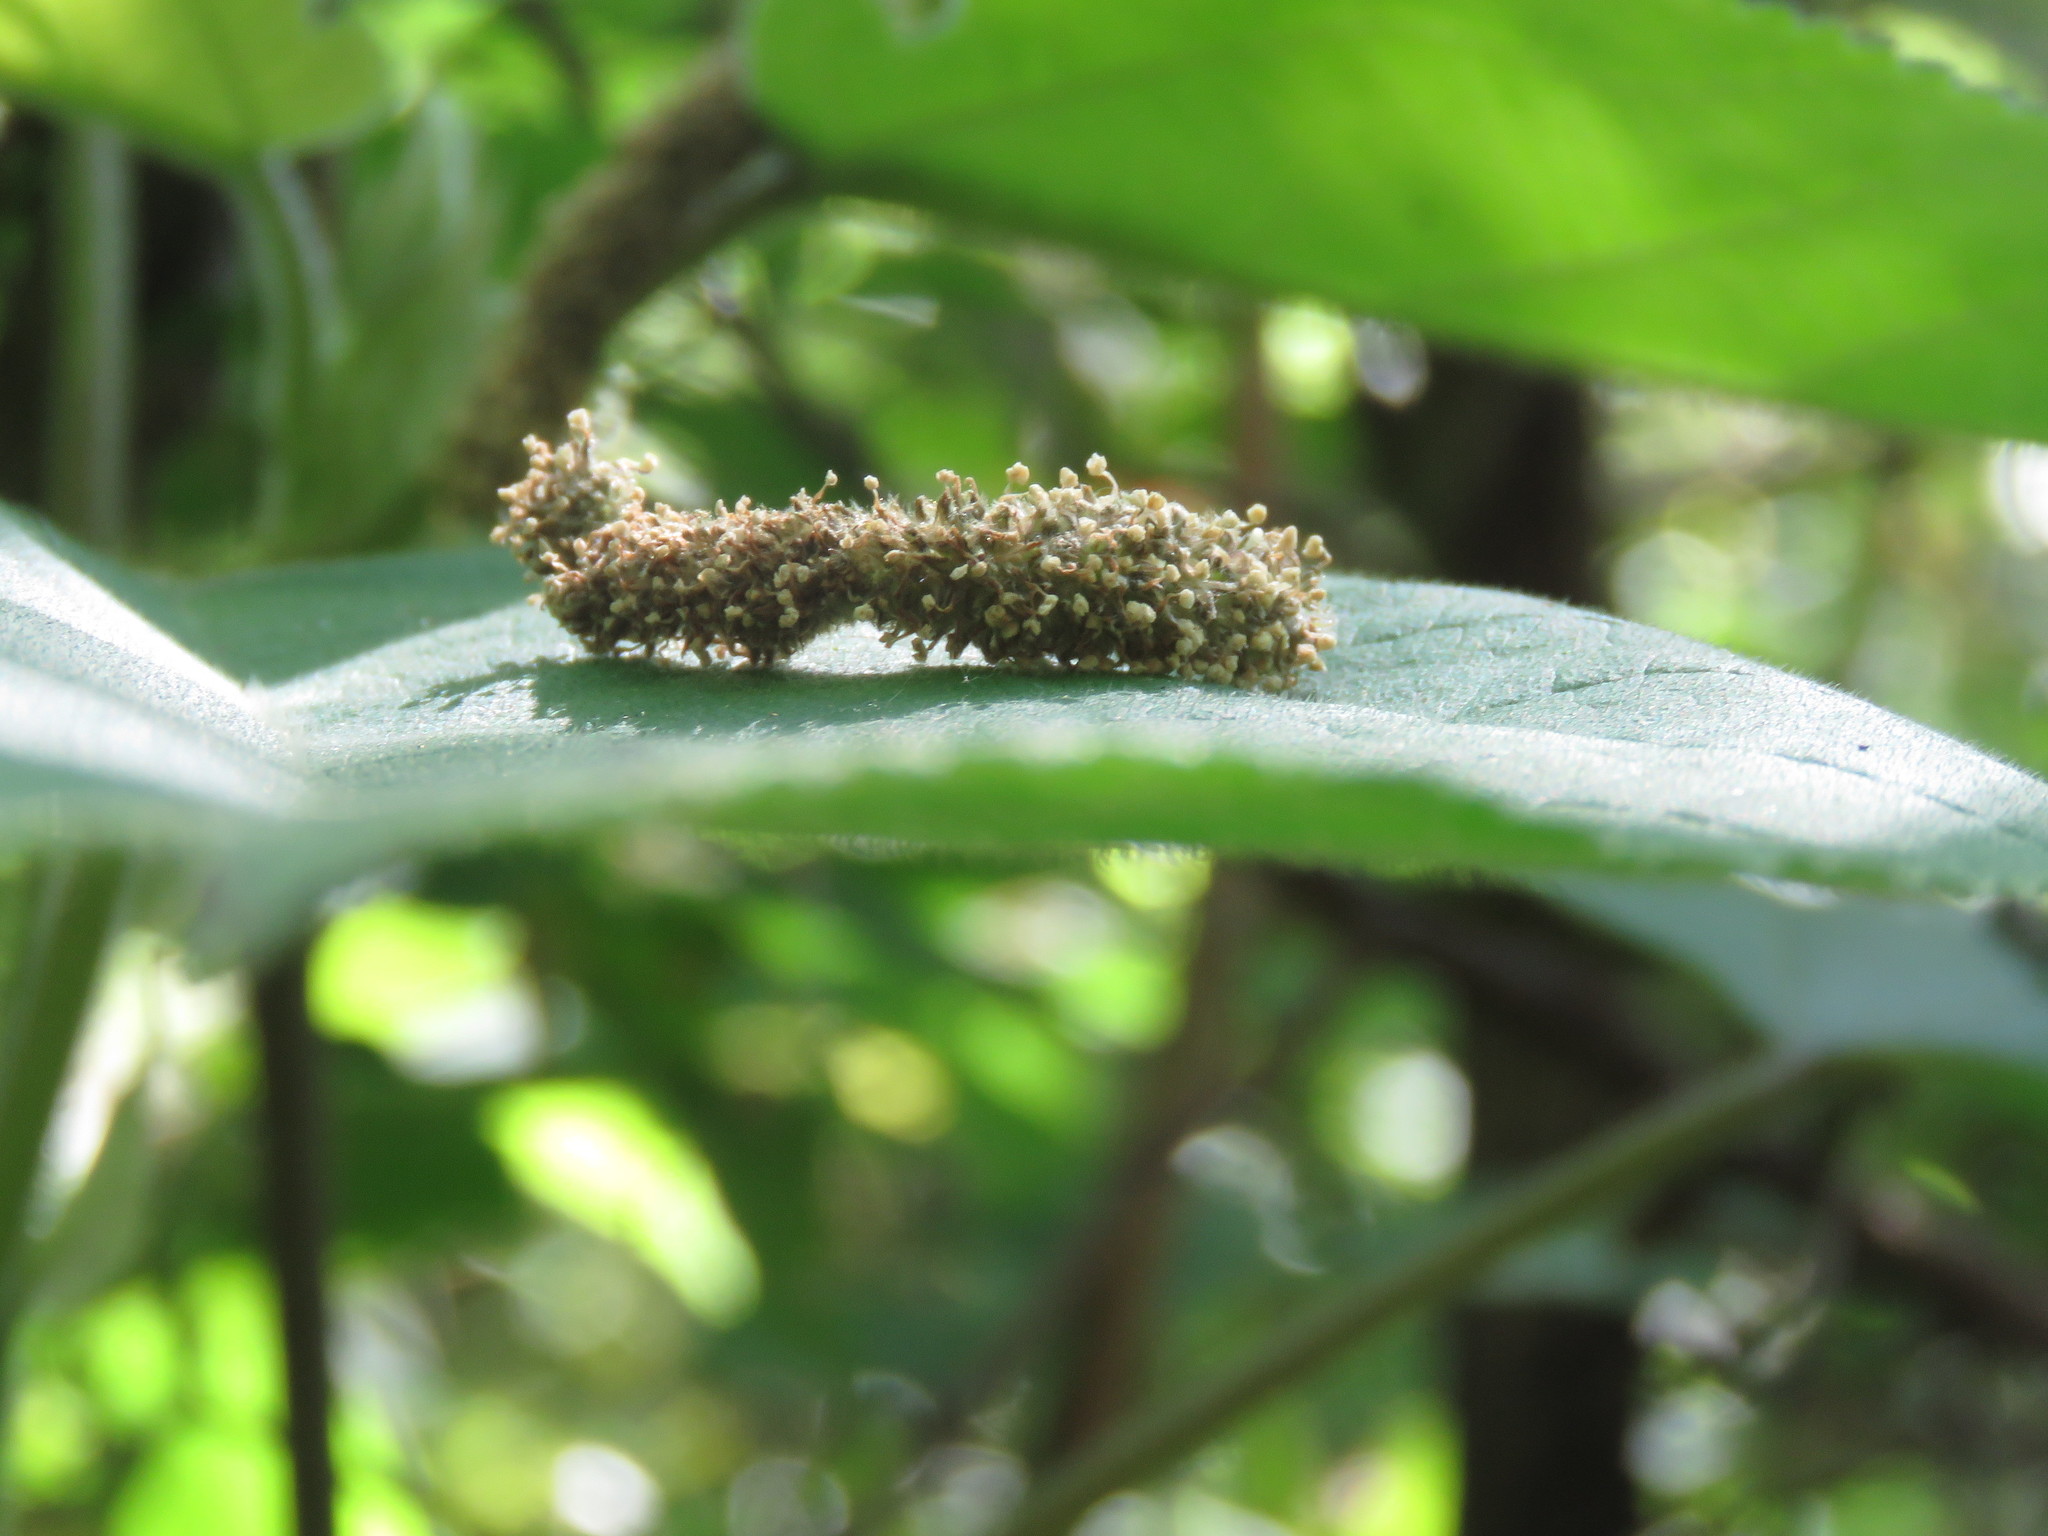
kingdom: Plantae
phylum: Tracheophyta
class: Magnoliopsida
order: Rosales
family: Moraceae
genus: Broussonetia
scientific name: Broussonetia papyrifera
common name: Paper mulberry
